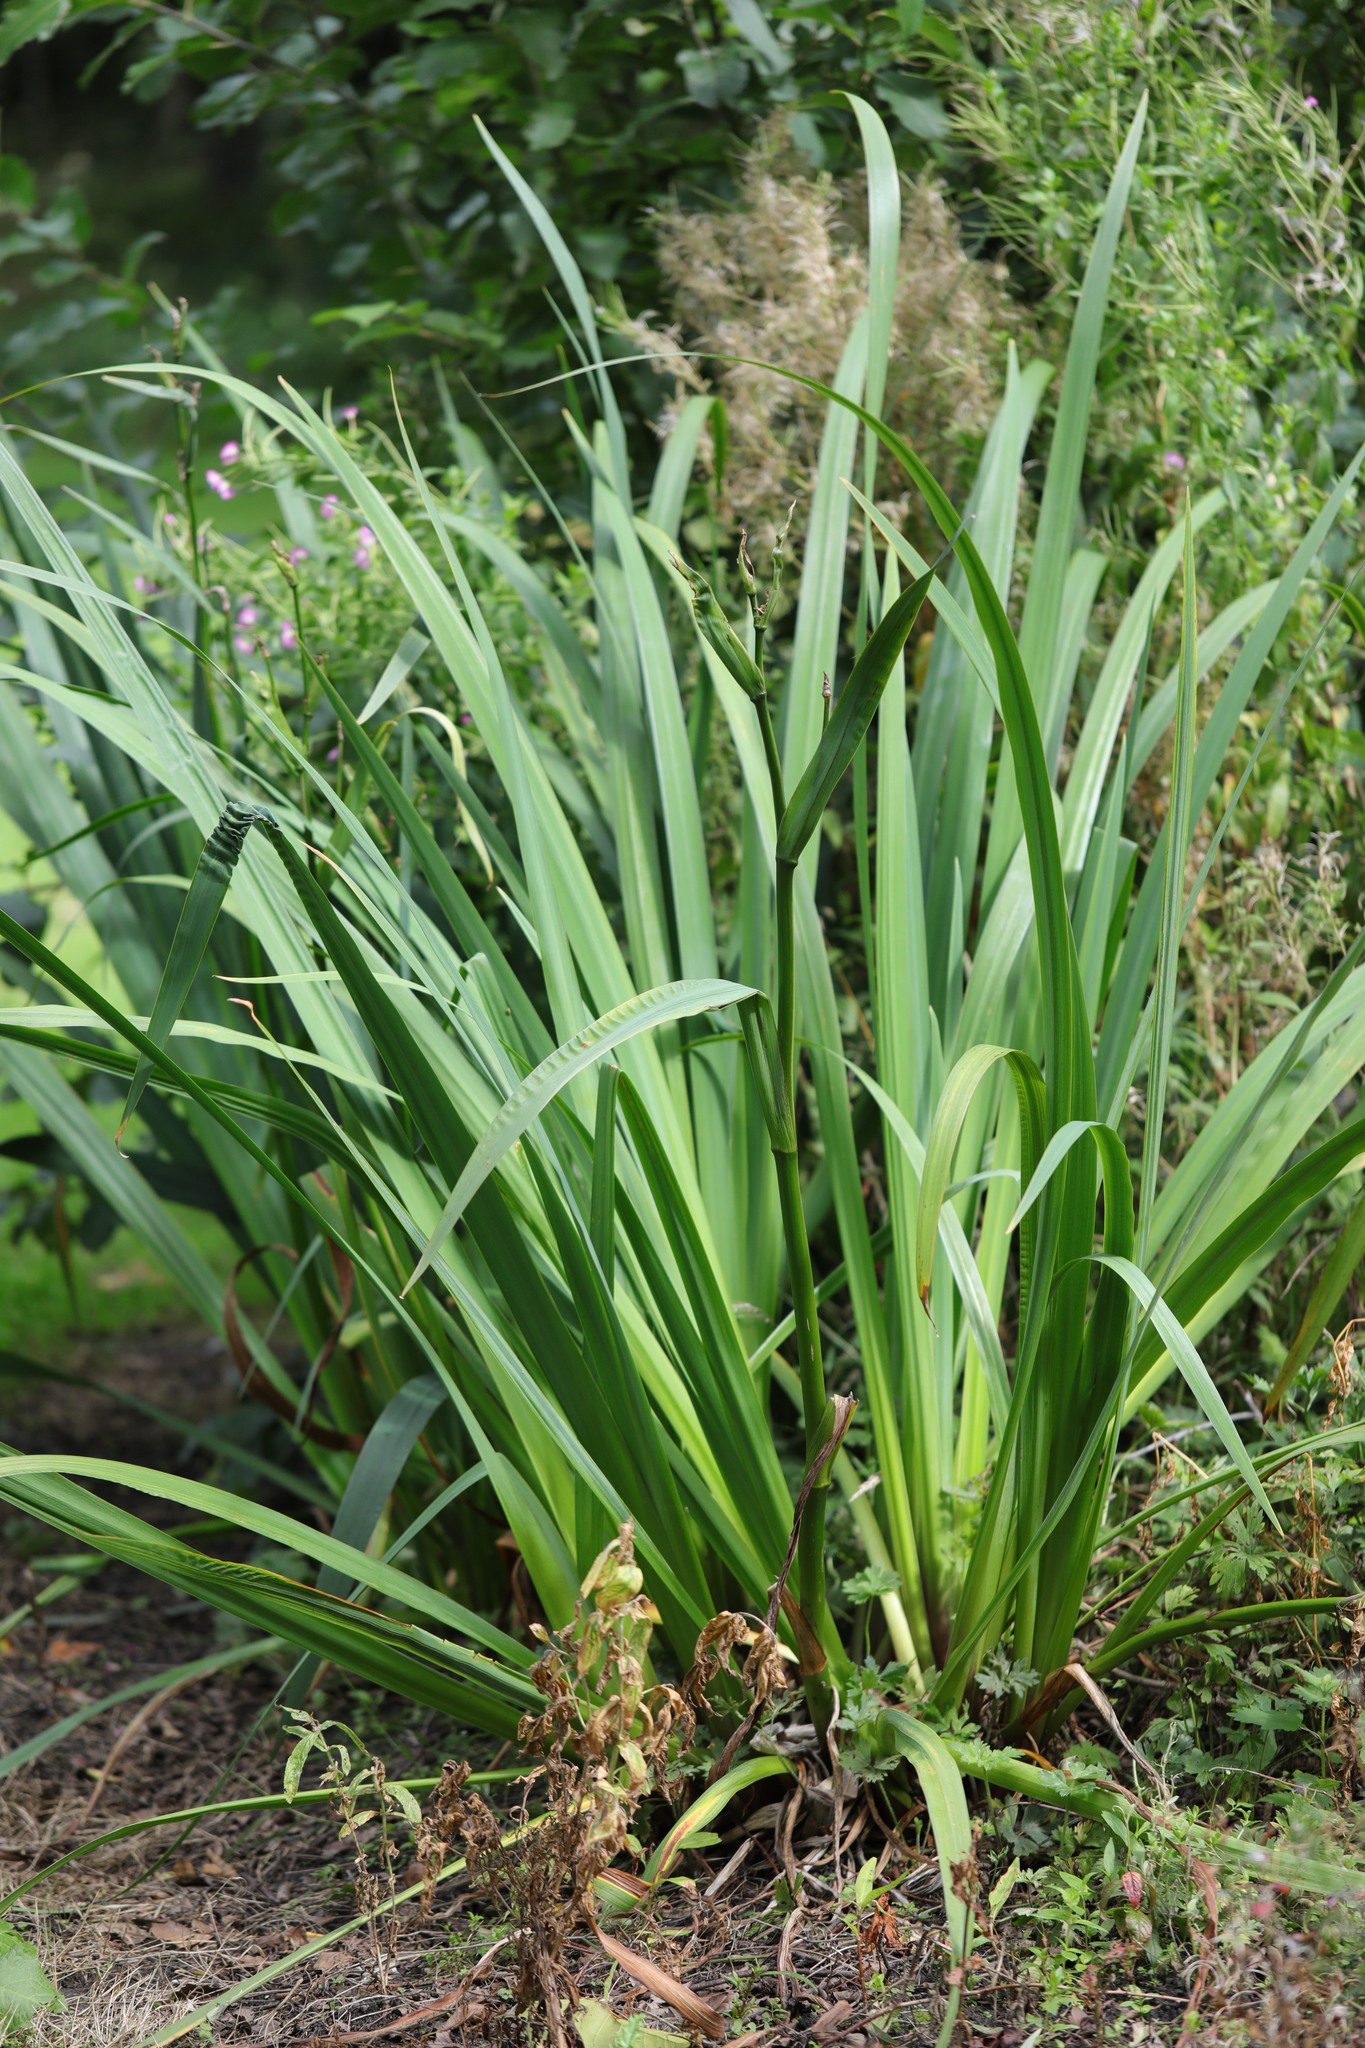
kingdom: Plantae
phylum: Tracheophyta
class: Liliopsida
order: Asparagales
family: Iridaceae
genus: Iris
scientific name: Iris pseudacorus
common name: Yellow flag
